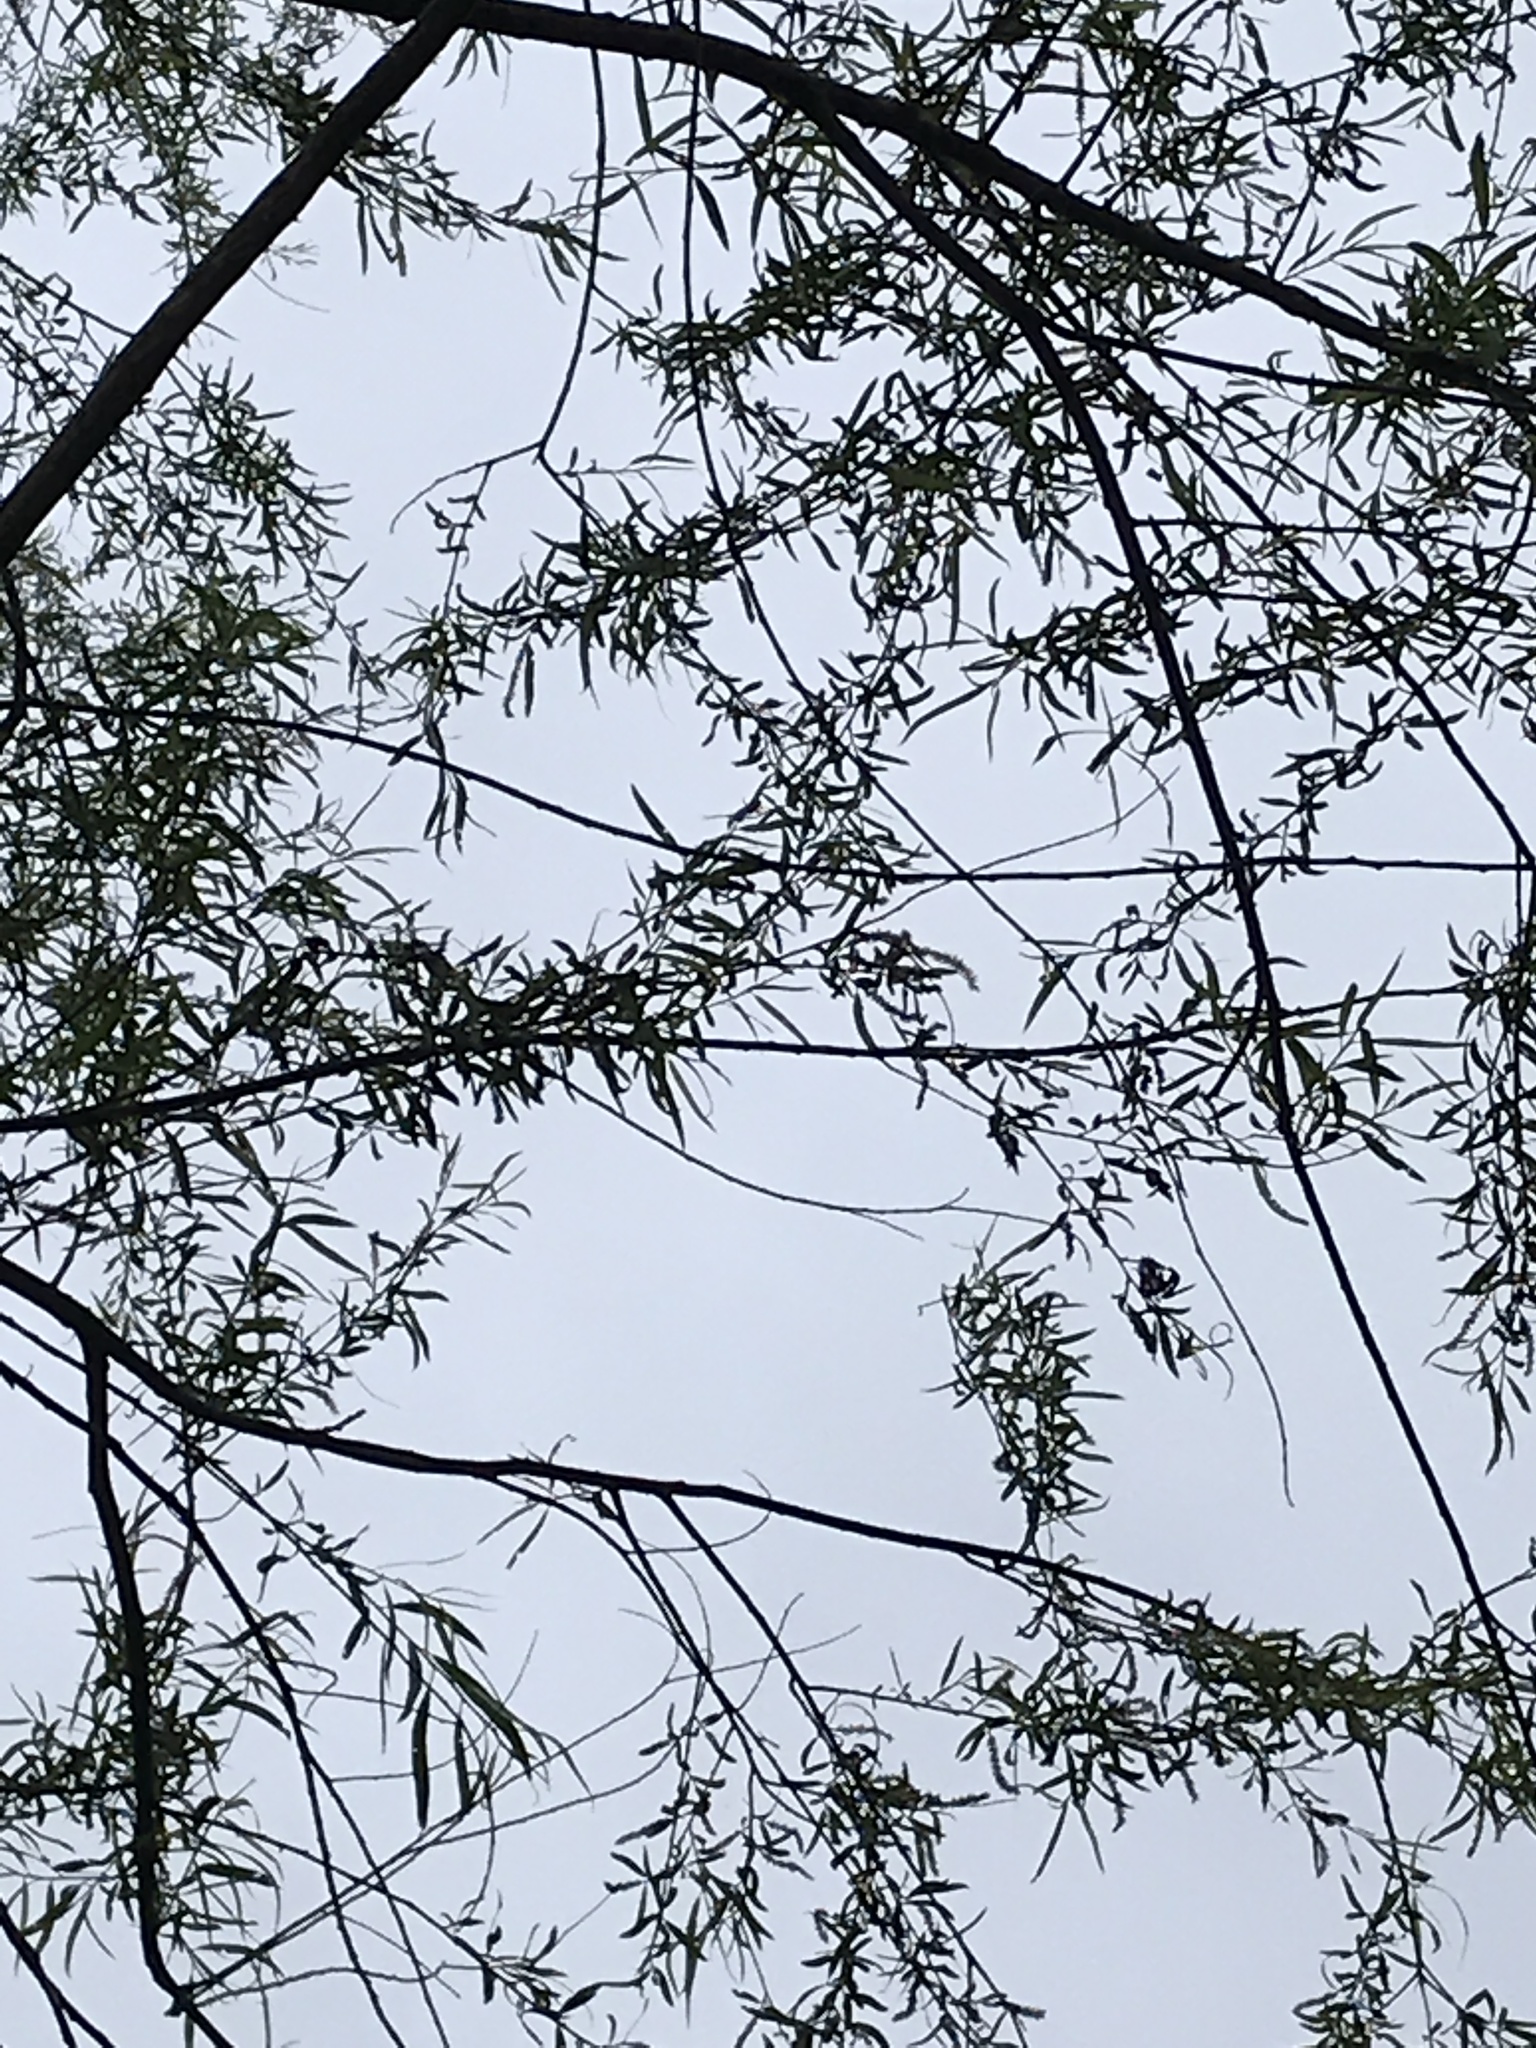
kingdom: Plantae
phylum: Tracheophyta
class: Magnoliopsida
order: Malpighiales
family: Salicaceae
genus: Salix
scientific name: Salix nigra
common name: Black willow
